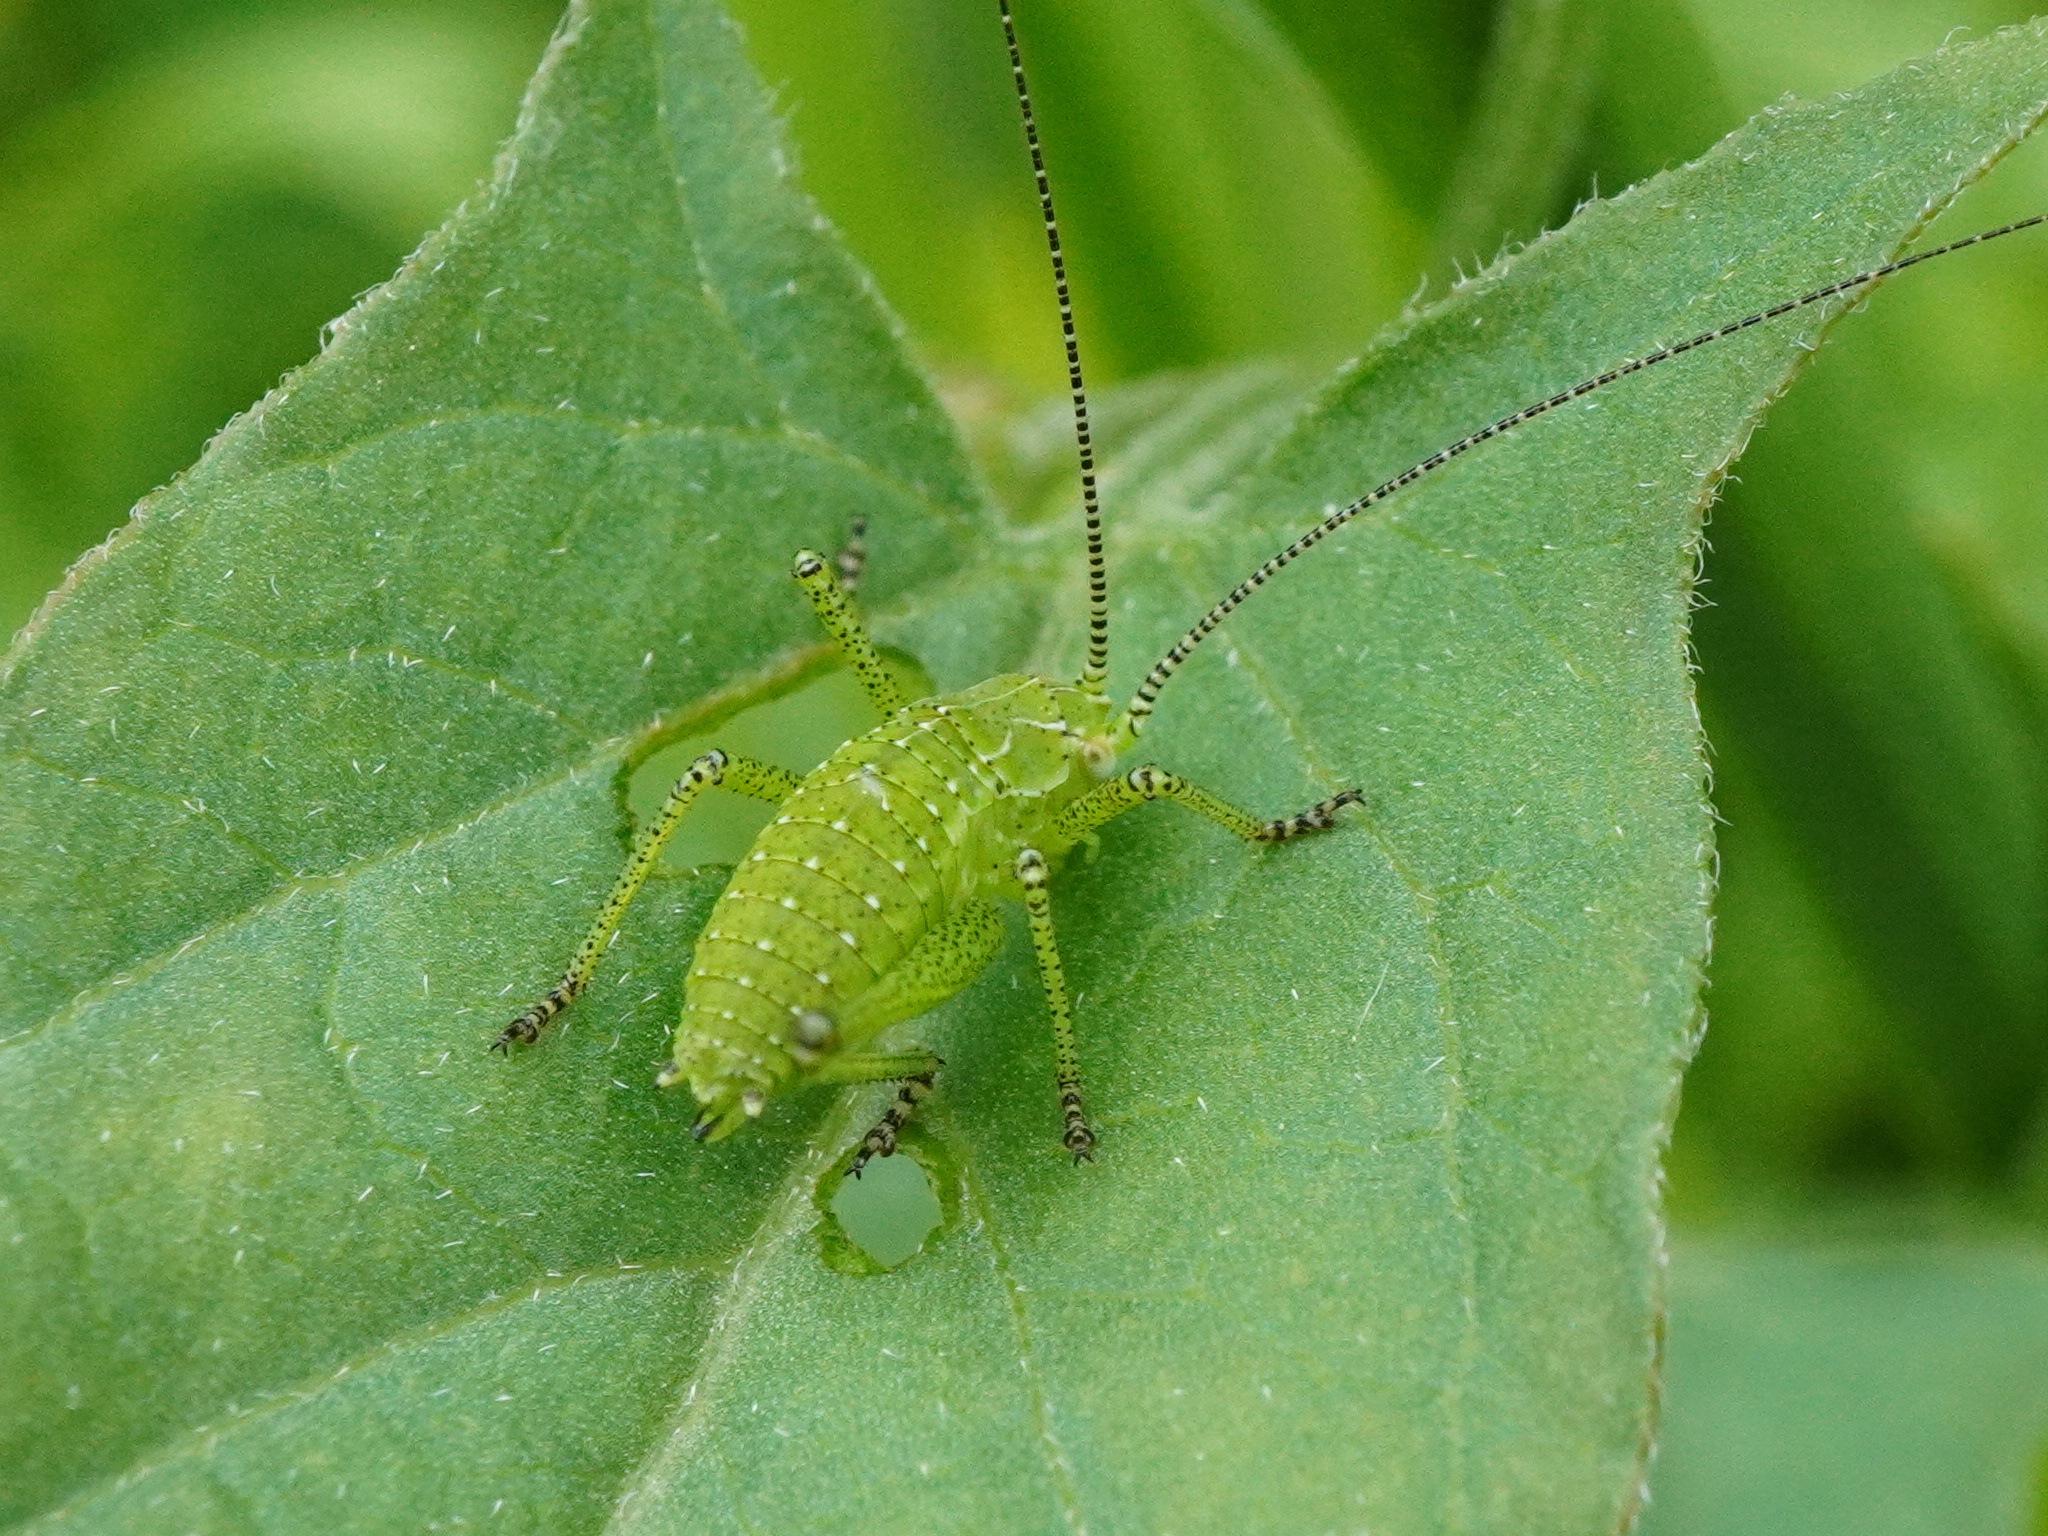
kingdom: Animalia
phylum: Arthropoda
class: Insecta
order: Orthoptera
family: Tettigoniidae
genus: Leptophyes
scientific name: Leptophyes albovittata
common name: Striped bush-cricket
